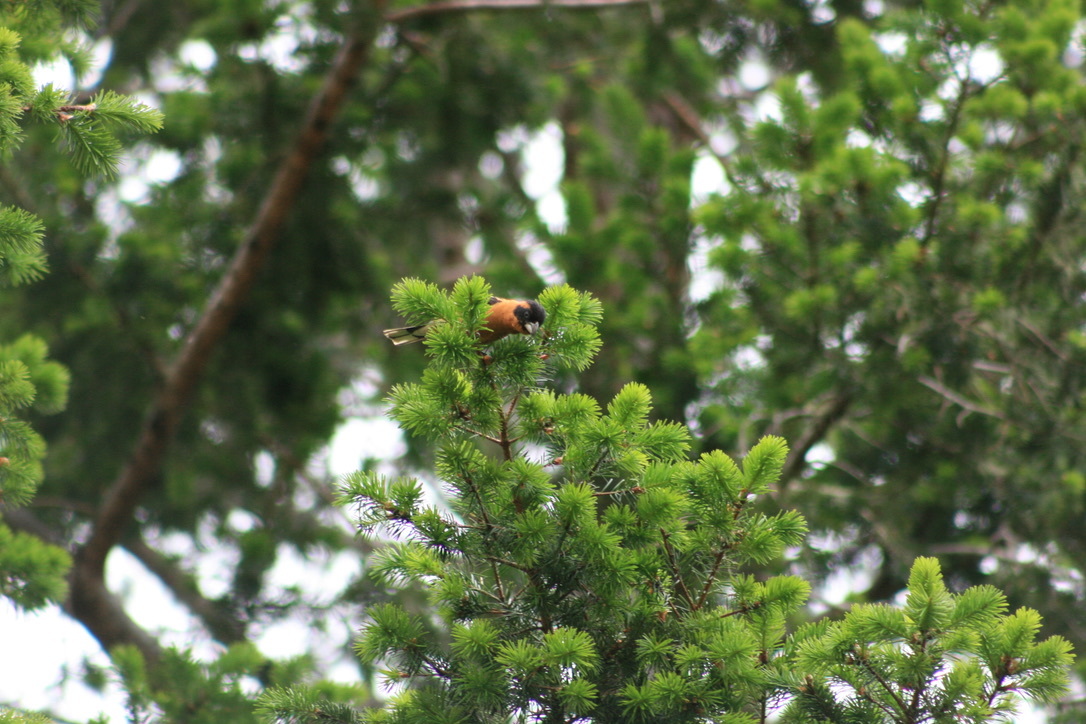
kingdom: Animalia
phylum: Chordata
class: Aves
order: Passeriformes
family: Cardinalidae
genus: Pheucticus
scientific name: Pheucticus melanocephalus
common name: Black-headed grosbeak
